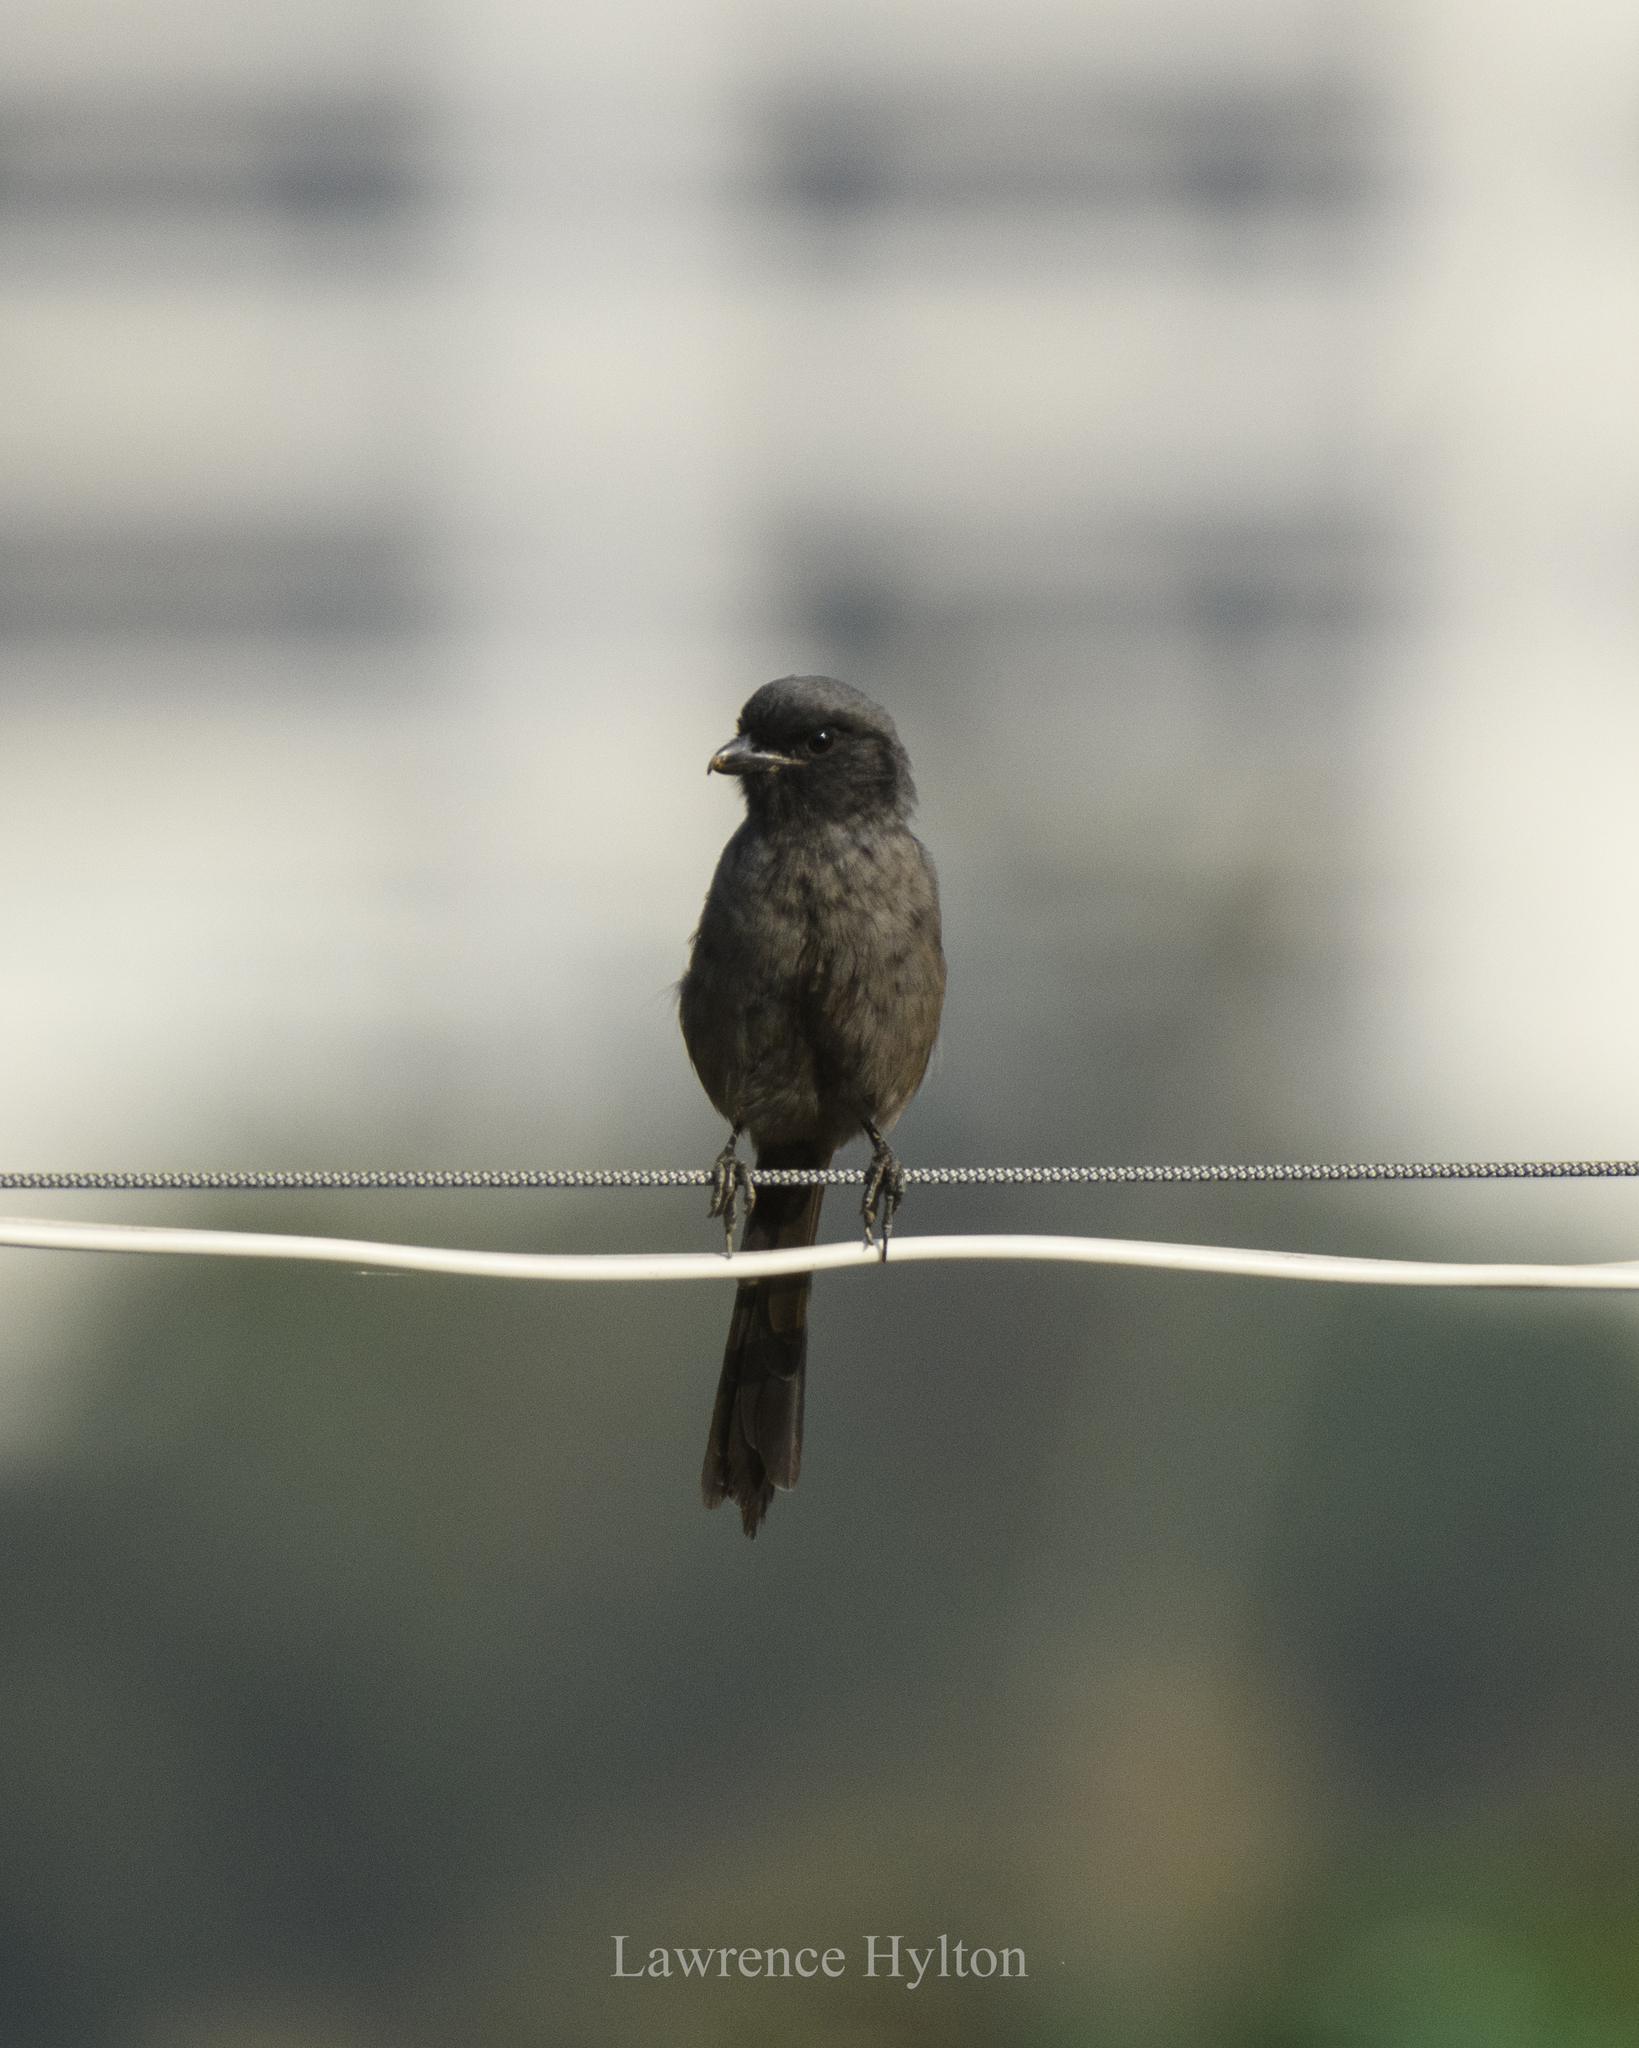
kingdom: Animalia
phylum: Chordata
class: Aves
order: Passeriformes
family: Laniidae
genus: Lanius
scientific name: Lanius schach
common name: Long-tailed shrike
